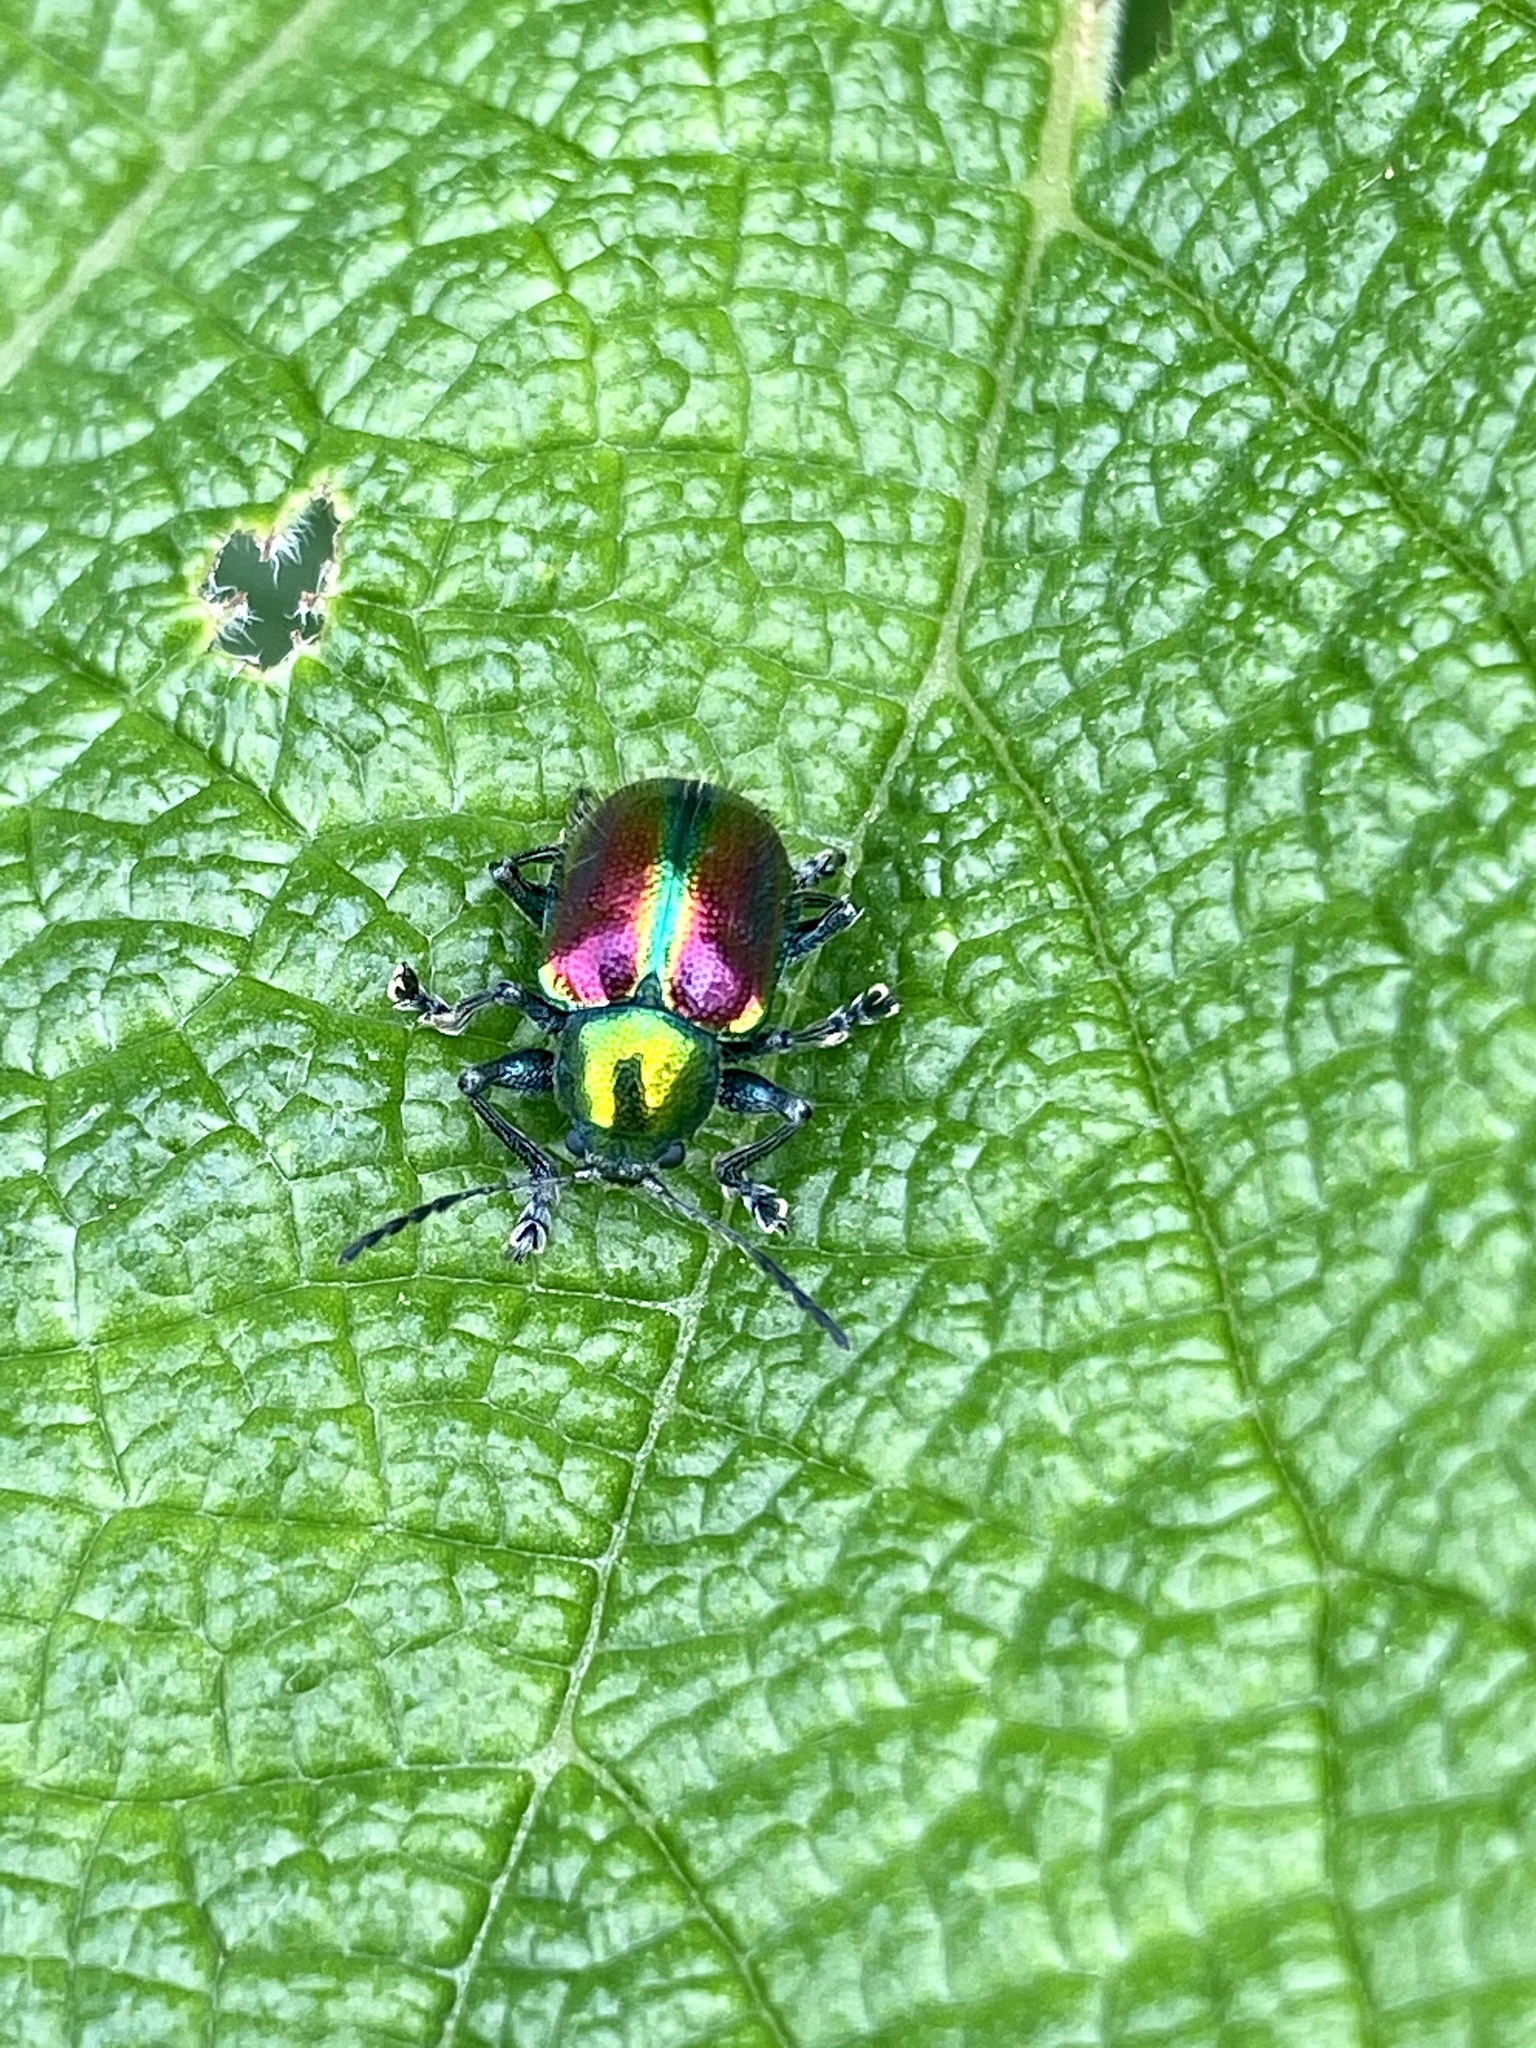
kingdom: Animalia
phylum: Arthropoda
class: Insecta
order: Coleoptera
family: Chrysomelidae
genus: Acrothinium
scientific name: Acrothinium gaschkevitchii
